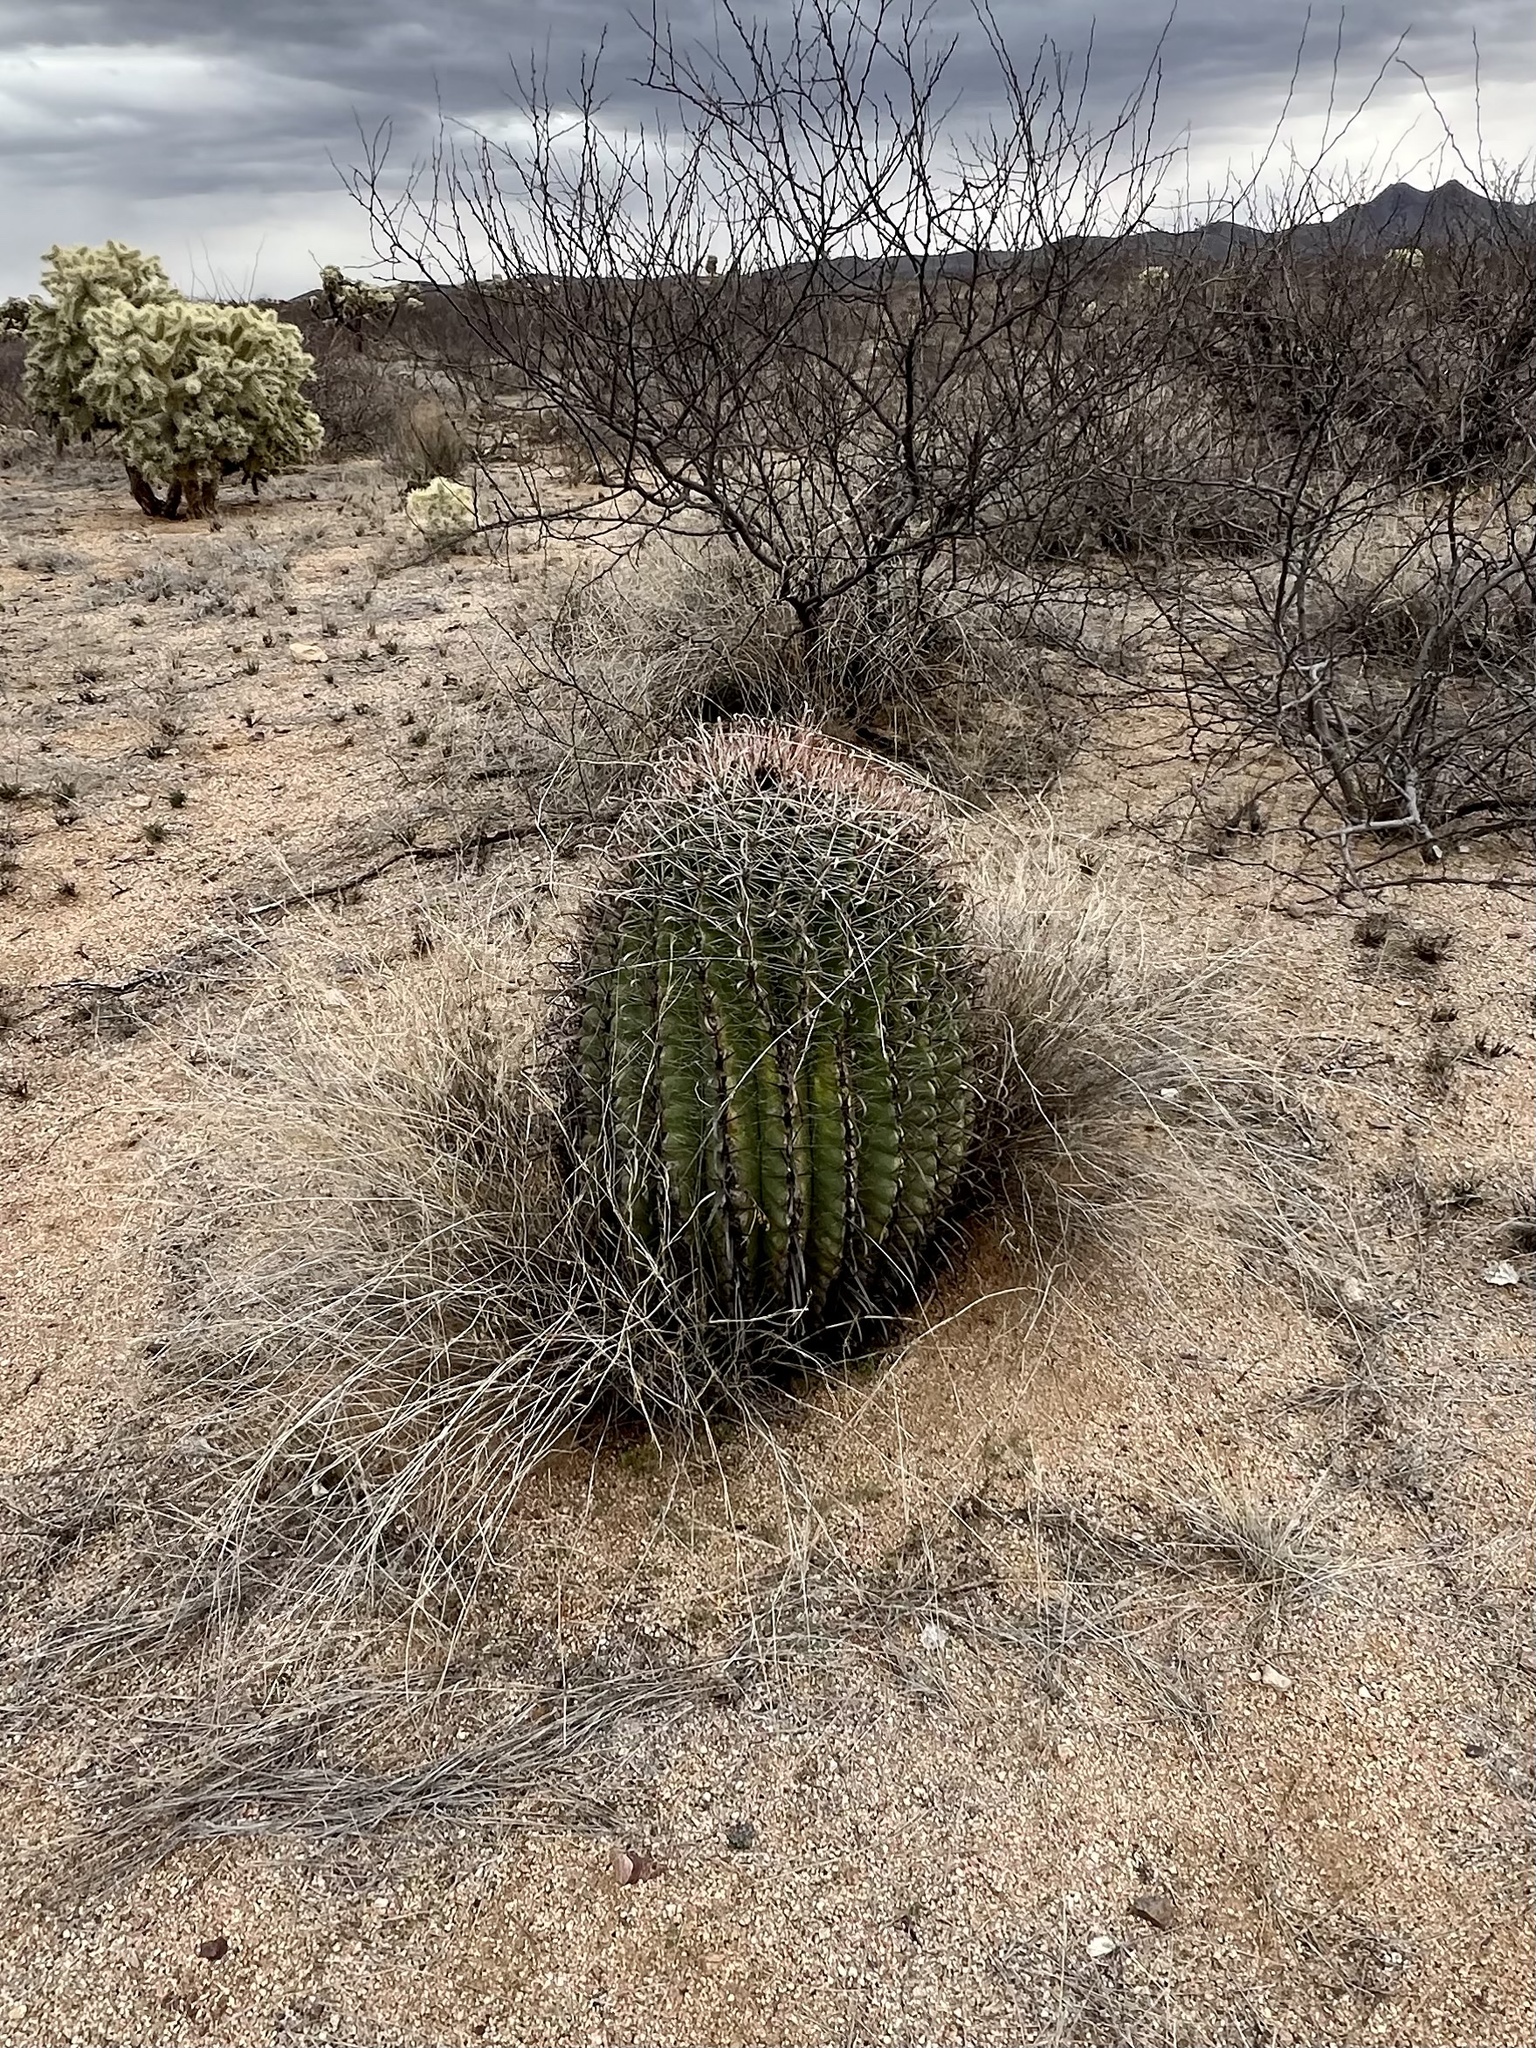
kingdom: Plantae
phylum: Tracheophyta
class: Magnoliopsida
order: Caryophyllales
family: Cactaceae
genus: Ferocactus
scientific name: Ferocactus wislizeni
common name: Candy barrel cactus
